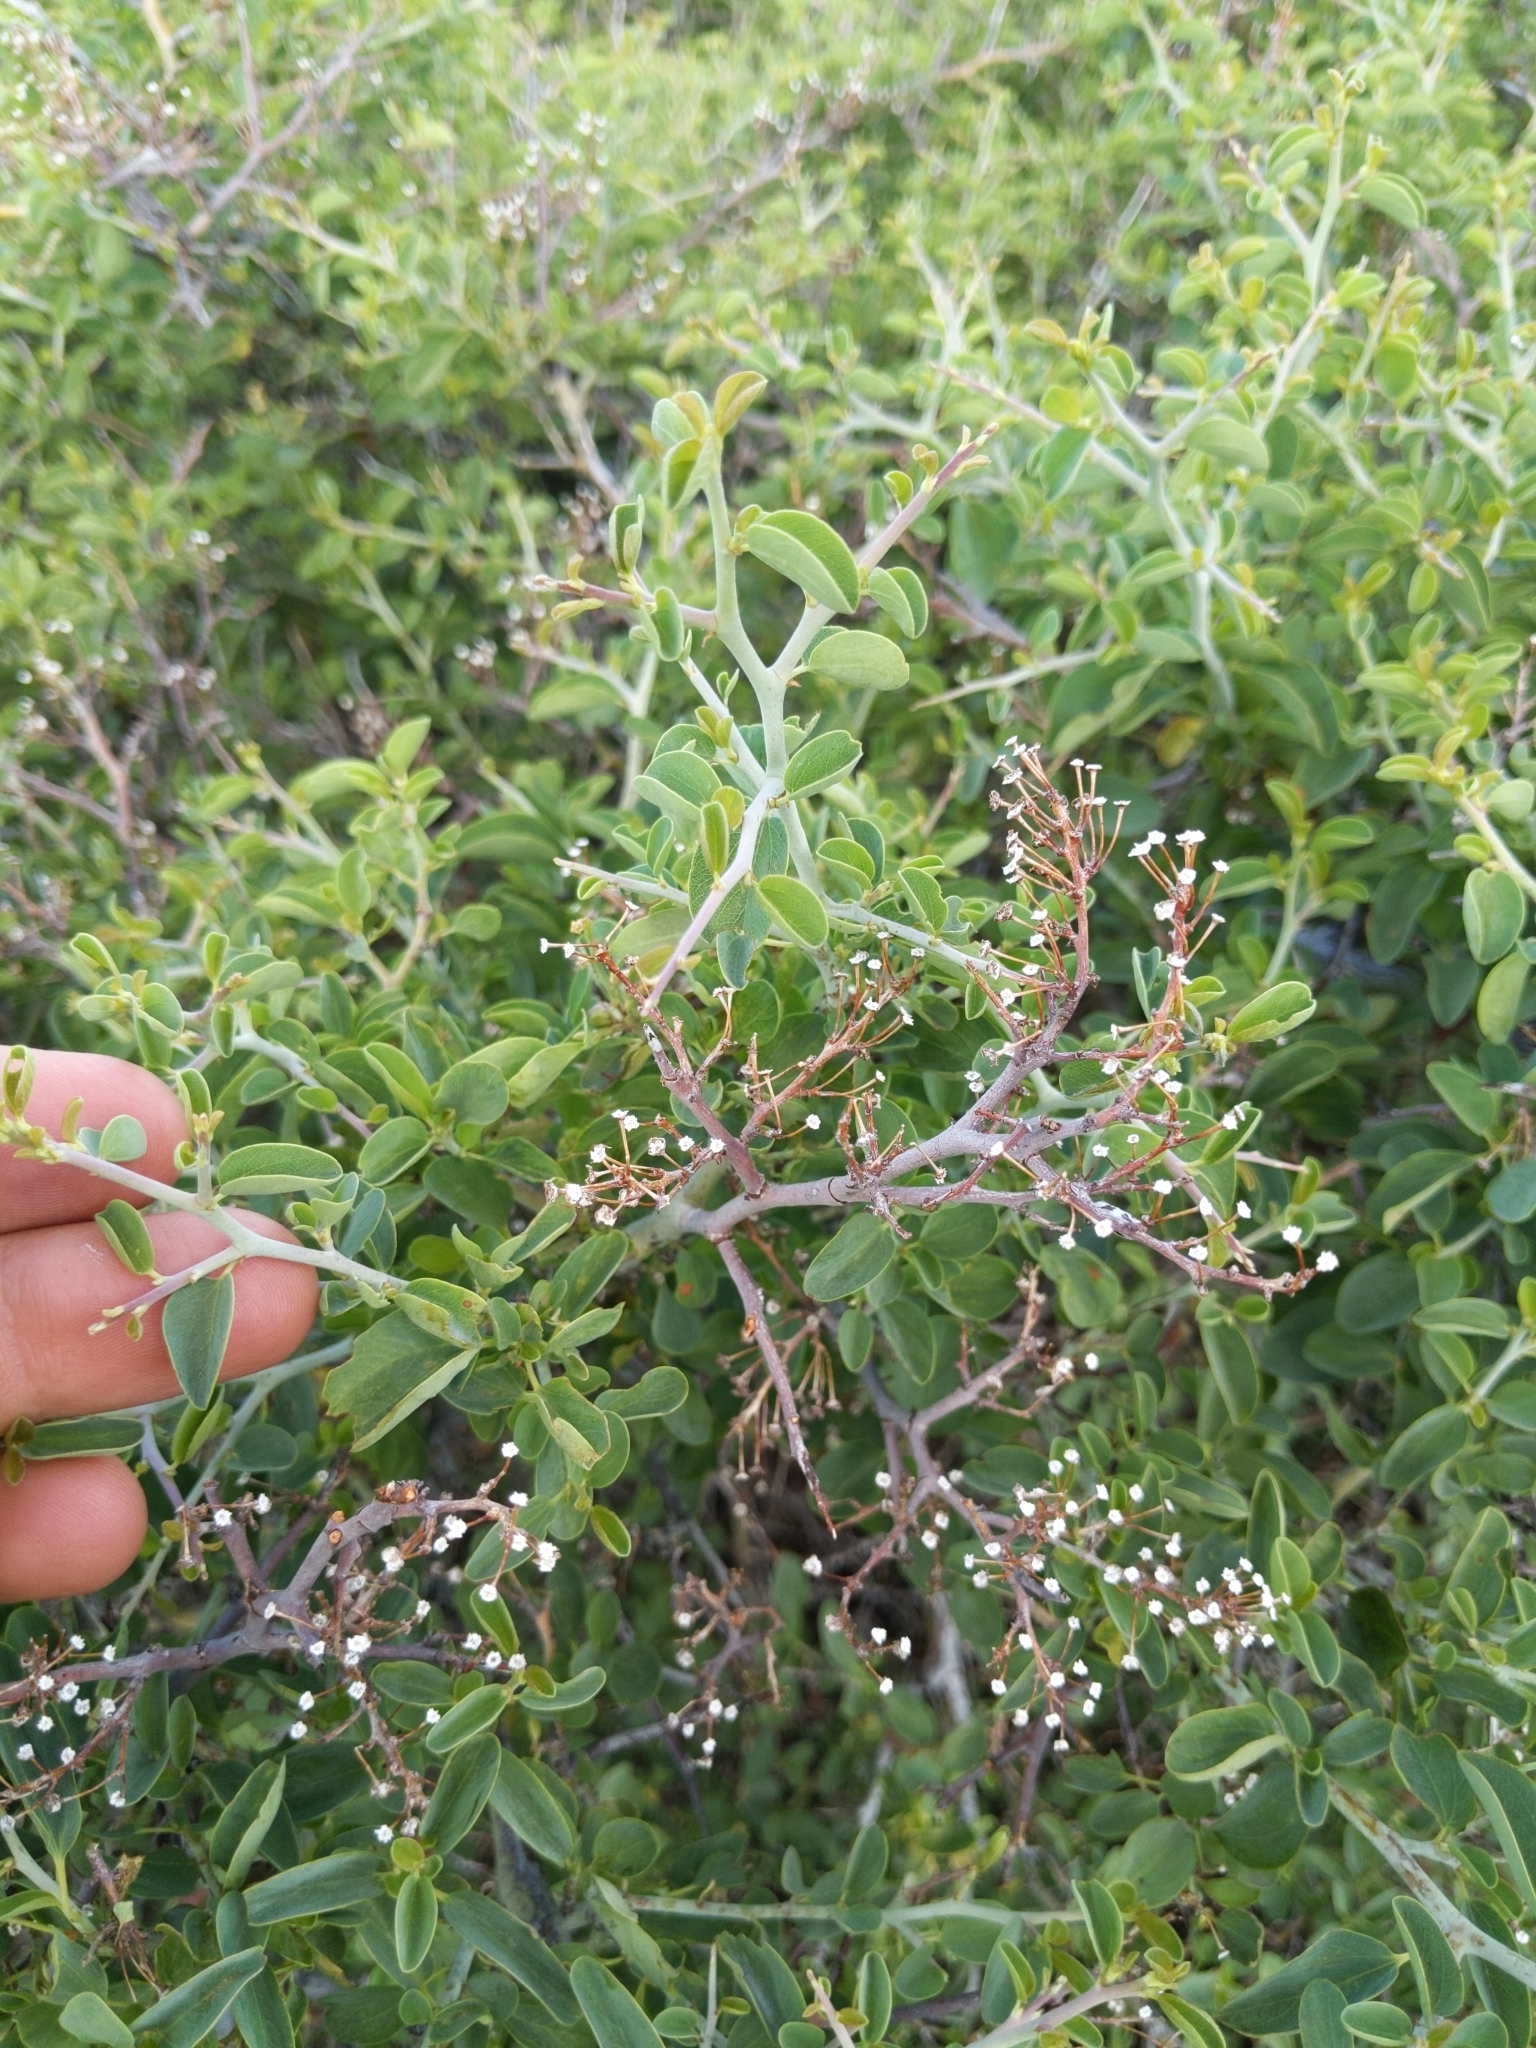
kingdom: Plantae
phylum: Tracheophyta
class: Magnoliopsida
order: Rosales
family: Rhamnaceae
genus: Ceanothus
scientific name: Ceanothus cordulatus
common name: Mountain whitethorn
